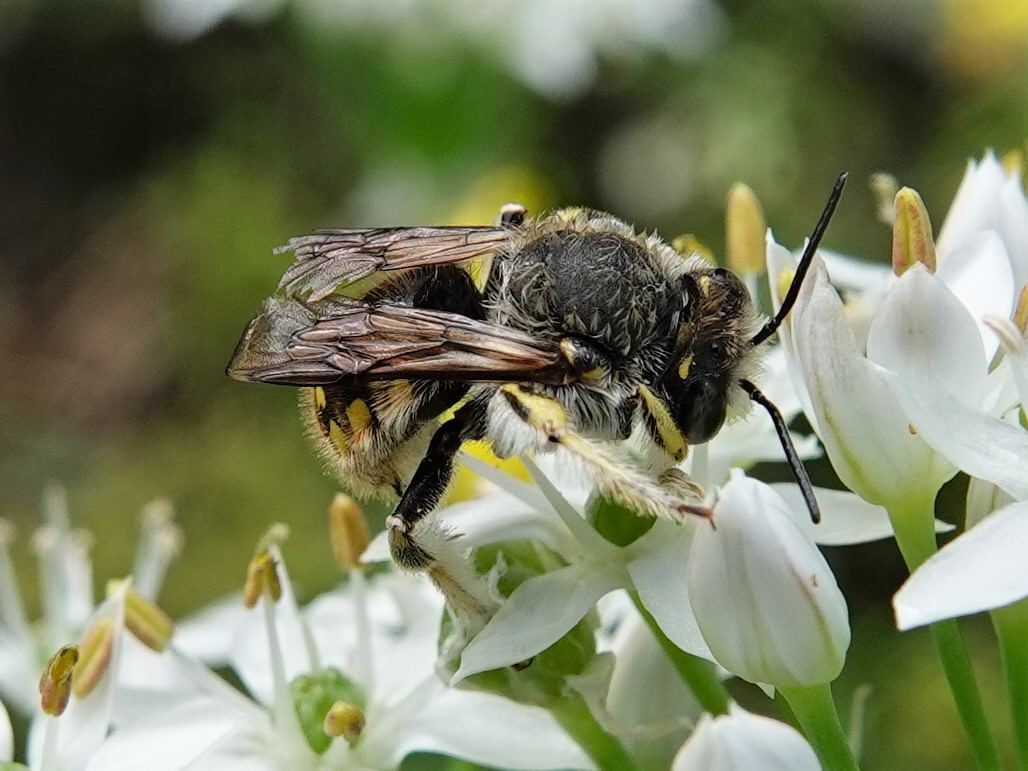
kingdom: Animalia
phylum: Arthropoda
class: Insecta
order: Hymenoptera
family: Megachilidae
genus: Anthidium
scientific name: Anthidium manicatum
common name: Wool carder bee
